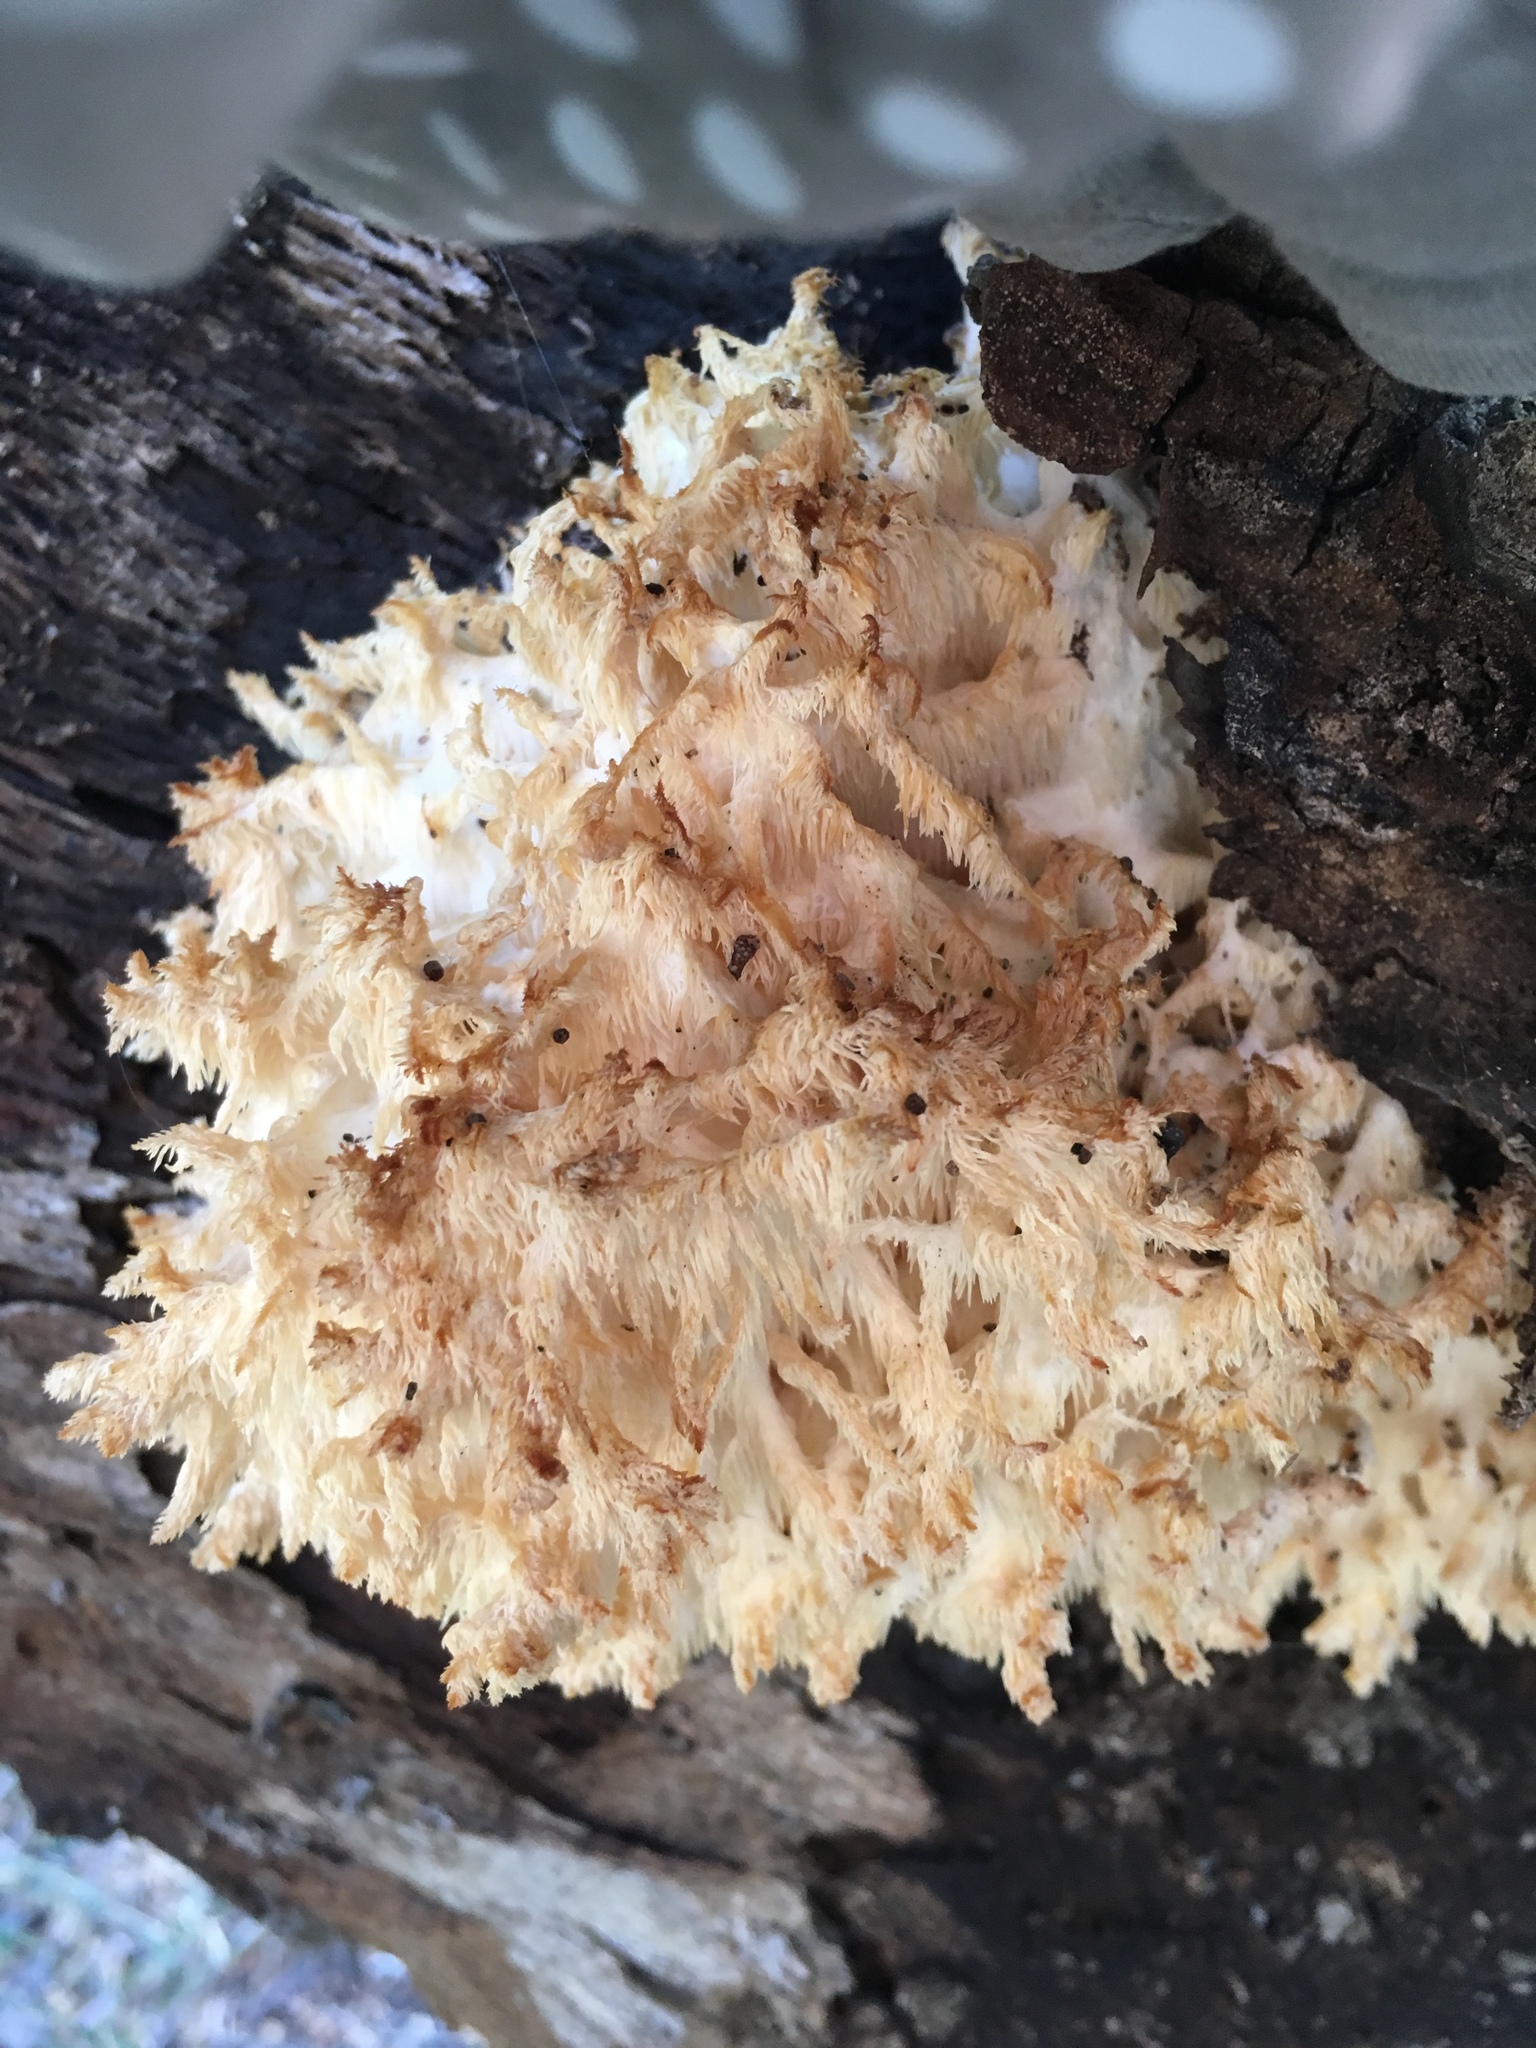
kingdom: Fungi
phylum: Basidiomycota
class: Agaricomycetes
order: Russulales
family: Hericiaceae
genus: Hericium
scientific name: Hericium coralloides
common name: Coral tooth
